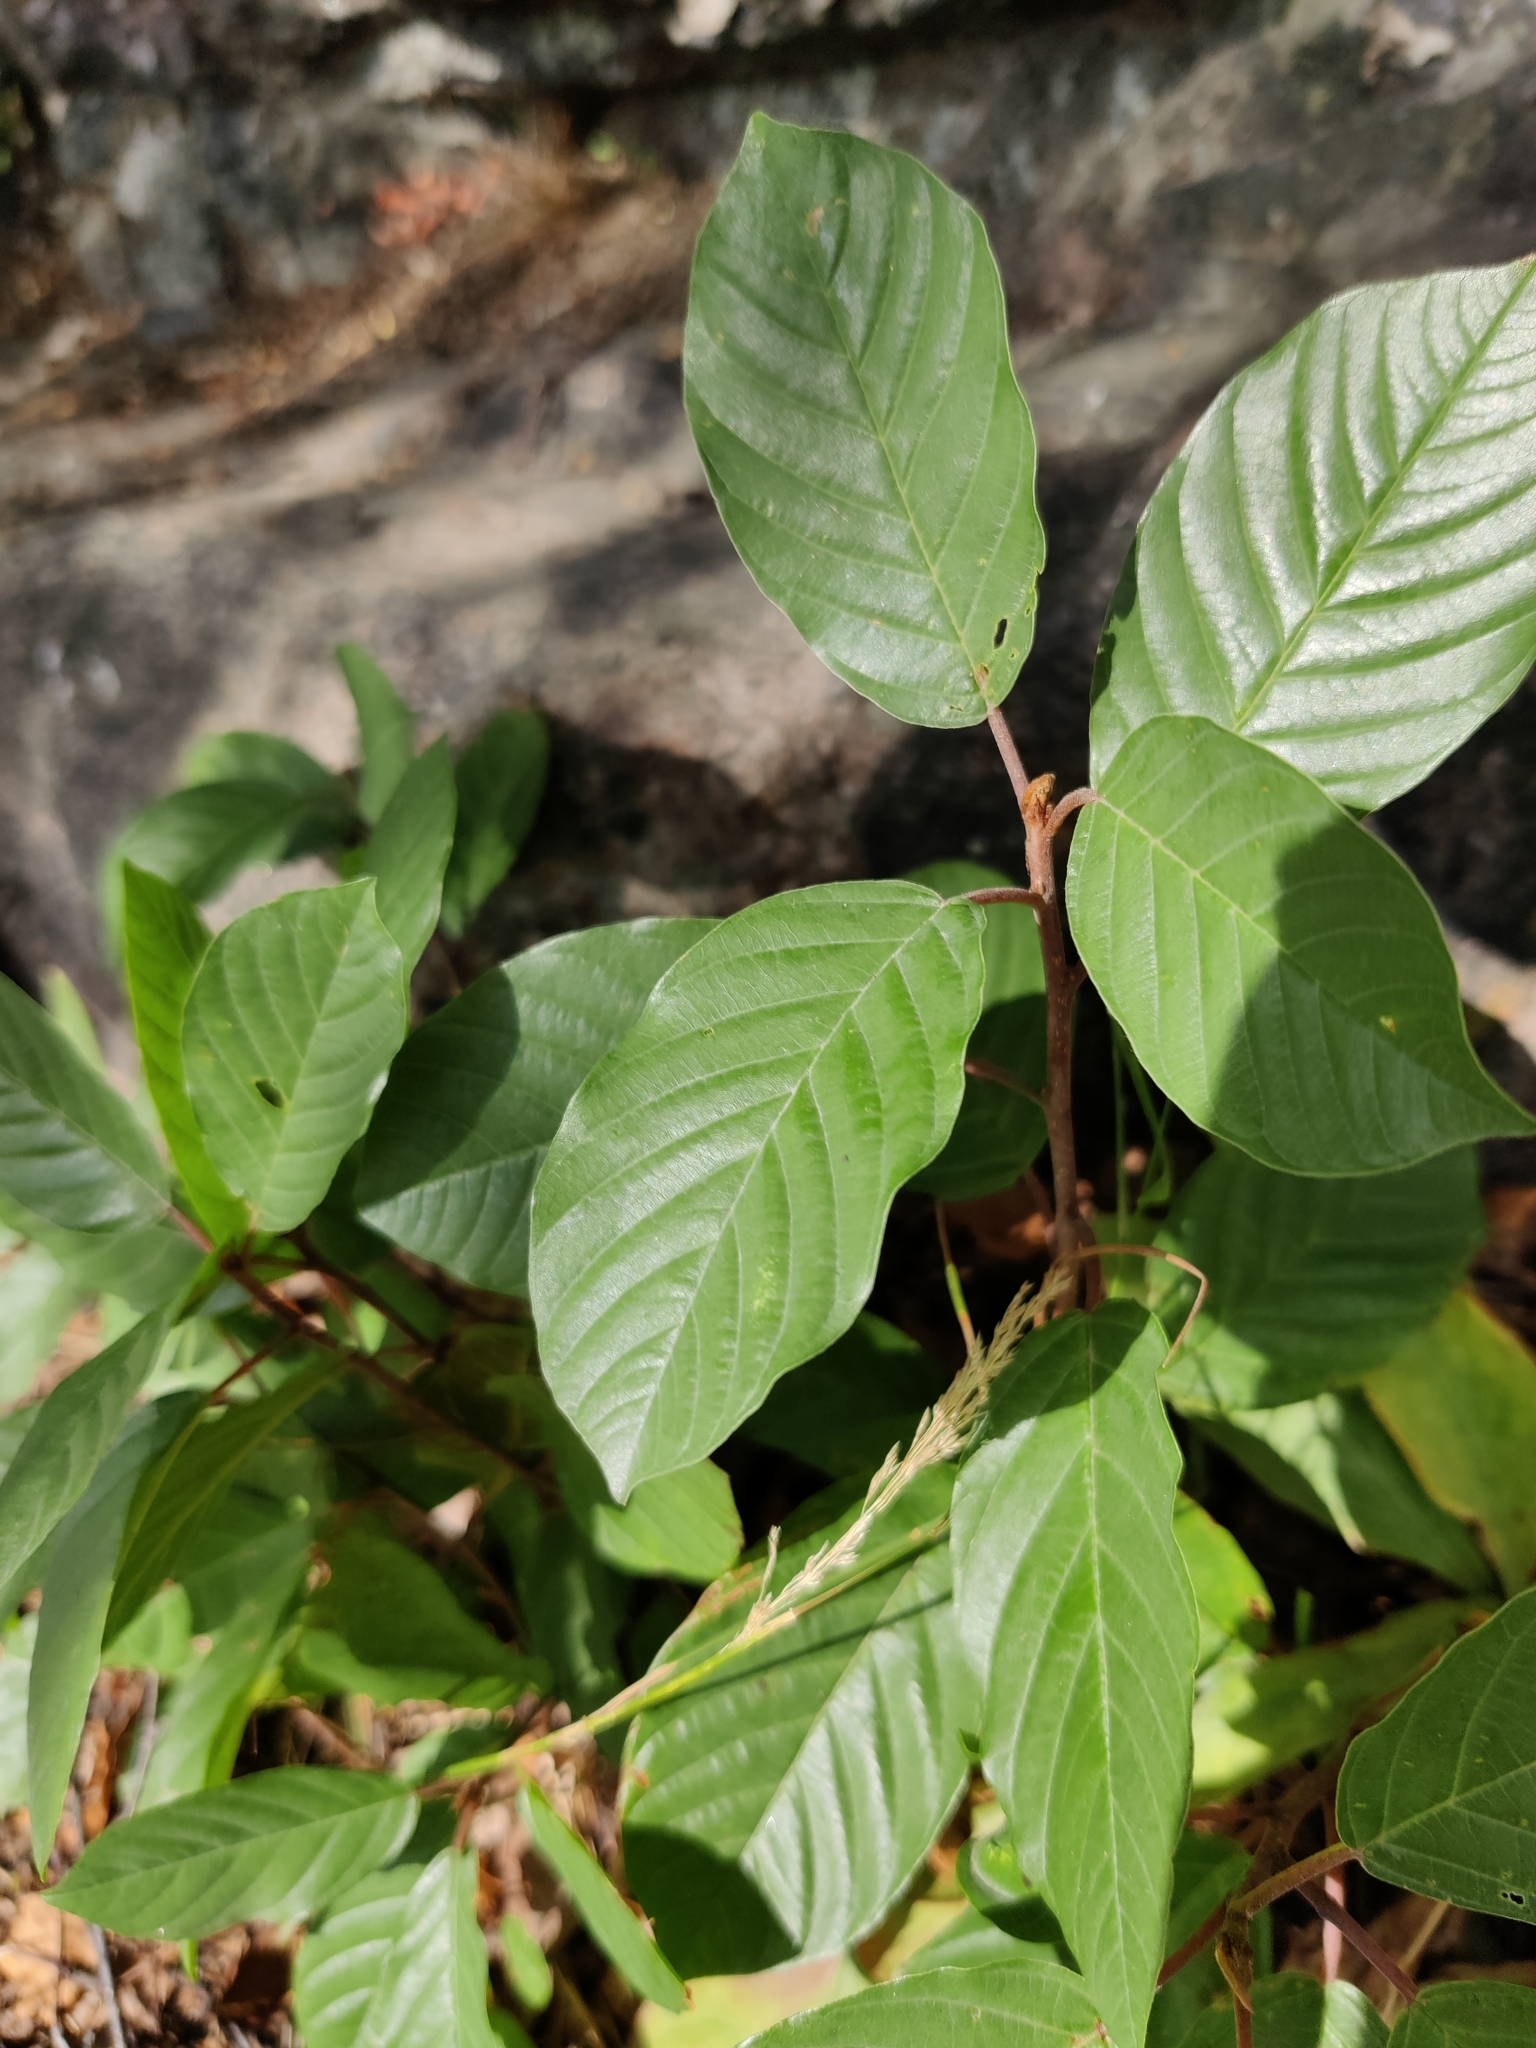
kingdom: Plantae
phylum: Tracheophyta
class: Magnoliopsida
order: Rosales
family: Rhamnaceae
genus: Frangula
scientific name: Frangula alnus
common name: Alder buckthorn
